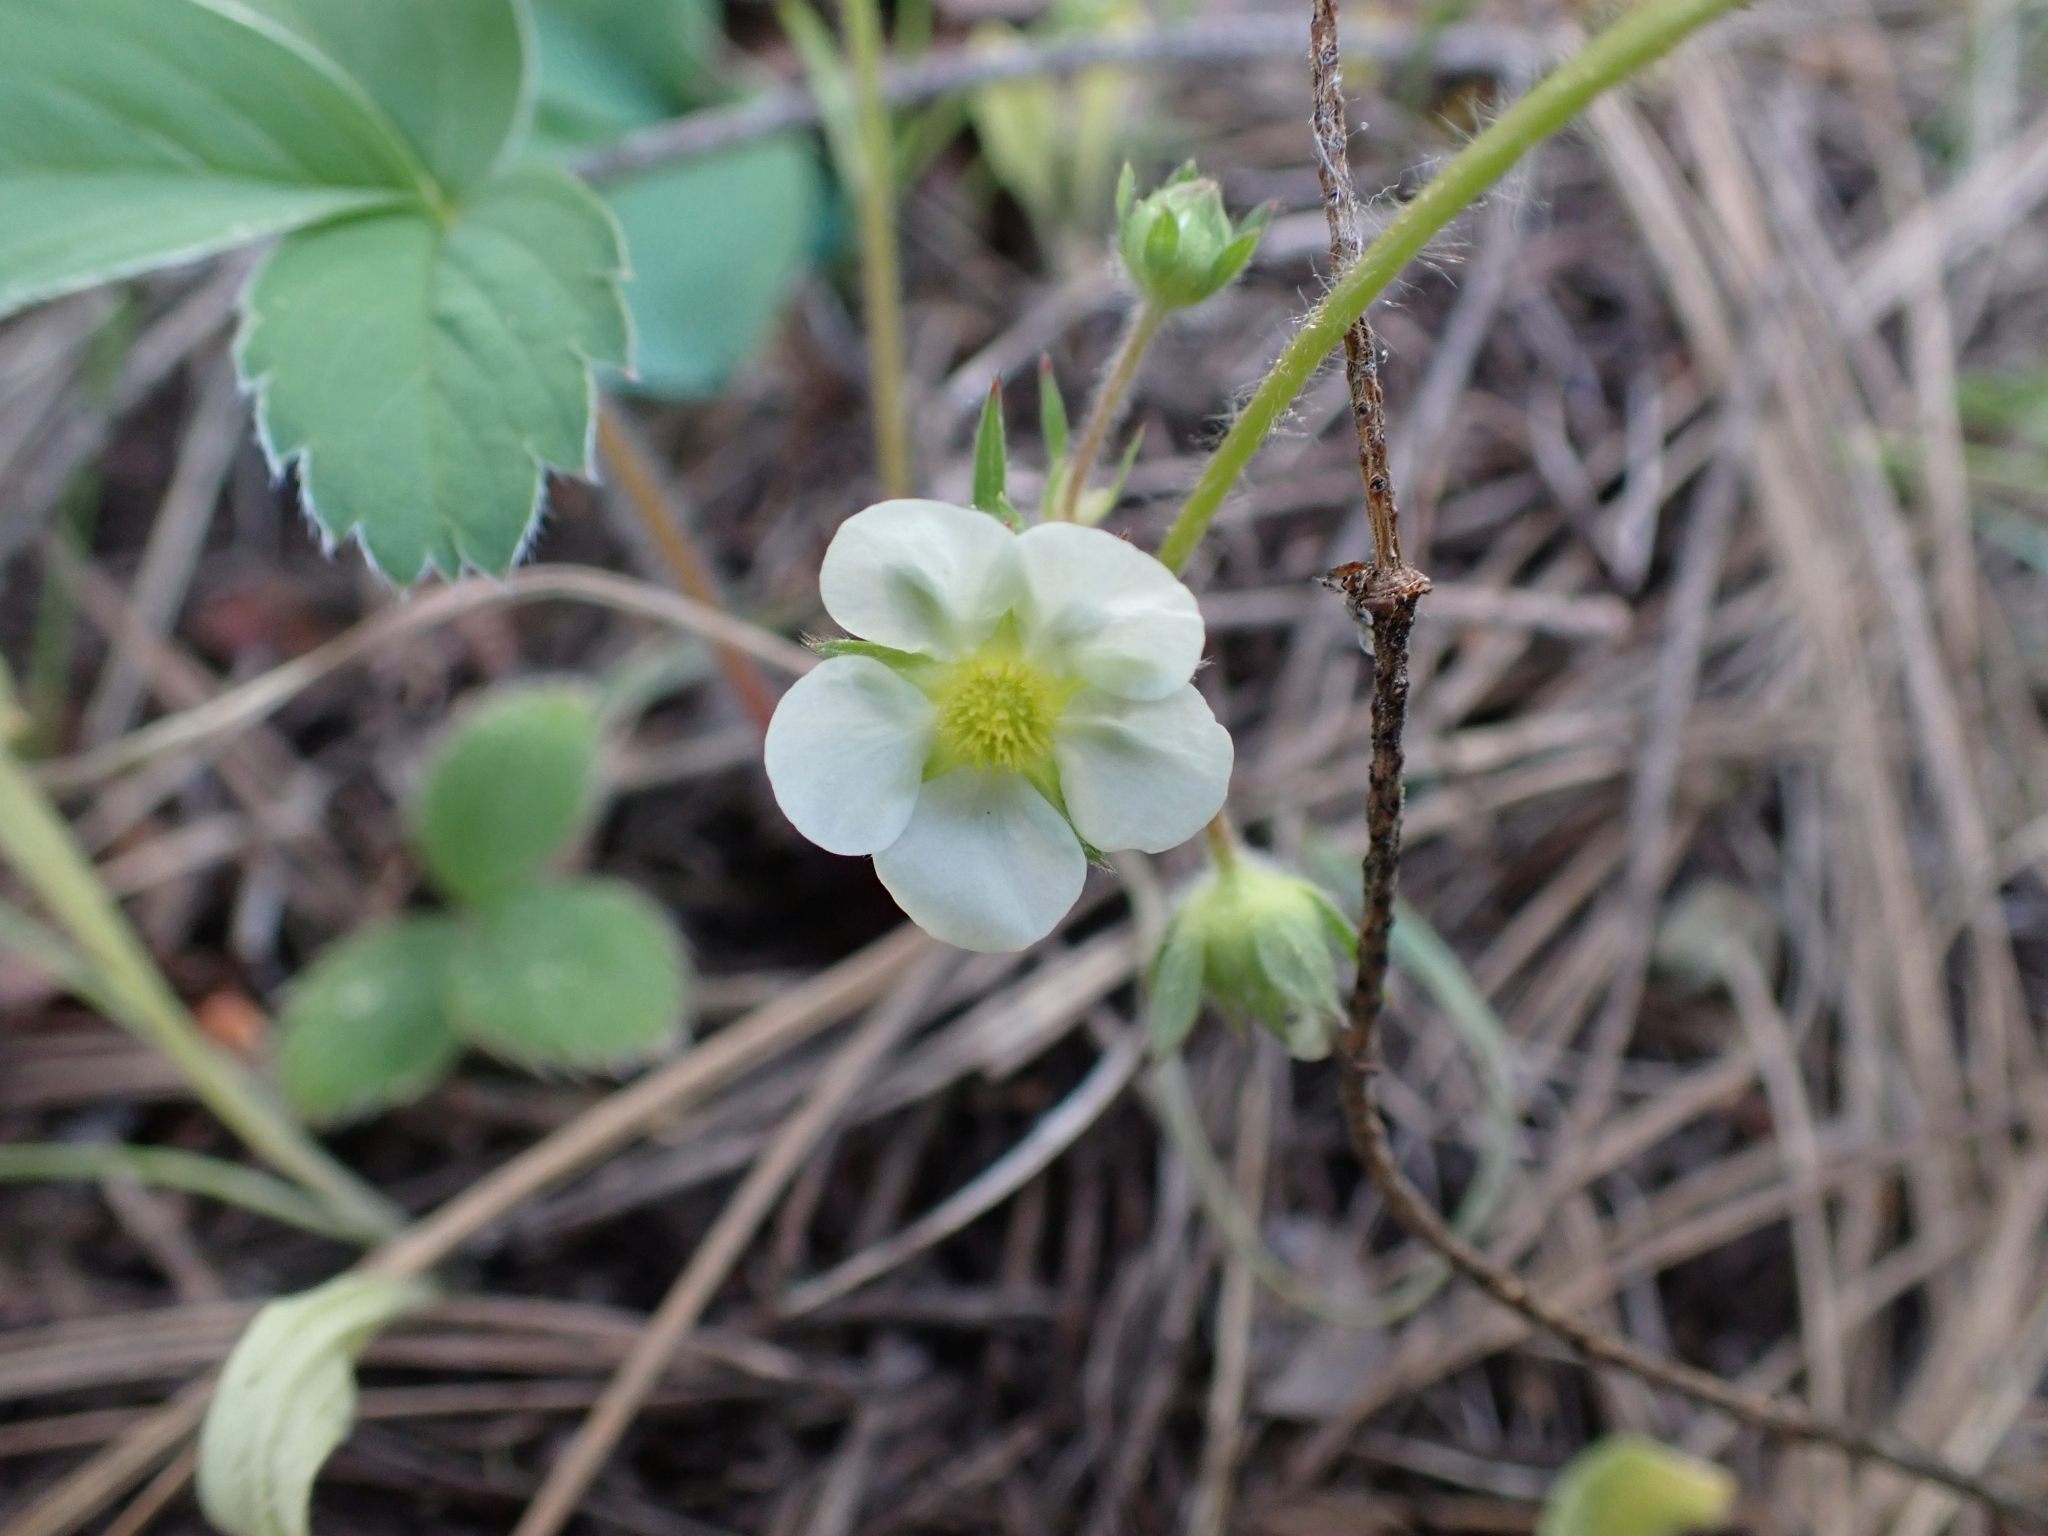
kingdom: Plantae
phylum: Tracheophyta
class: Magnoliopsida
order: Rosales
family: Rosaceae
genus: Fragaria
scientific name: Fragaria virginiana
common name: Thickleaved wild strawberry
